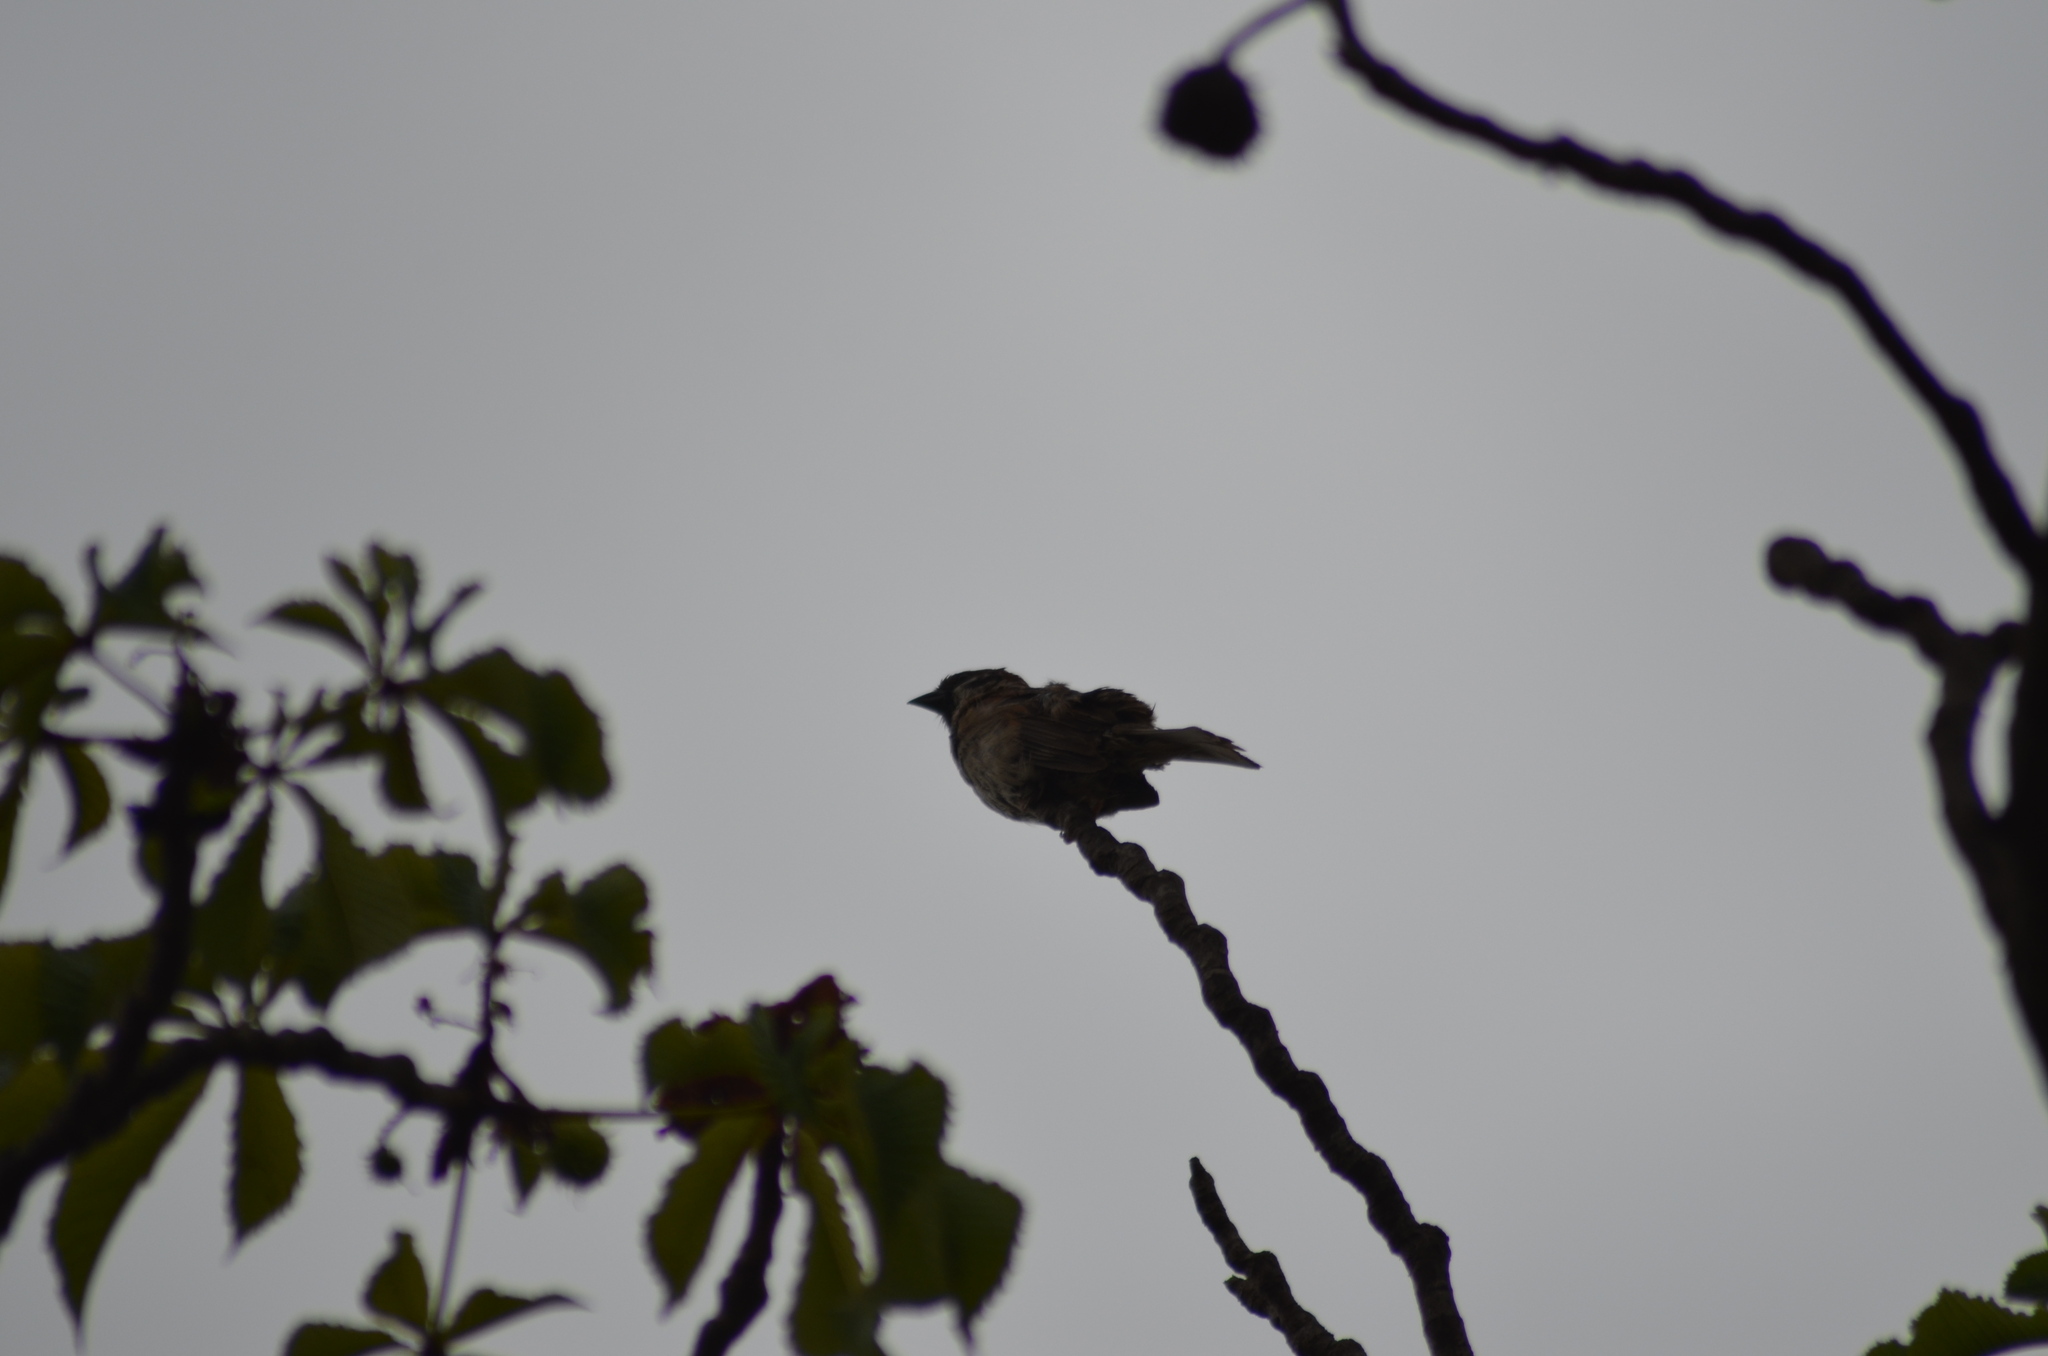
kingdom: Animalia
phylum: Chordata
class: Aves
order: Passeriformes
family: Passeridae
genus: Passer
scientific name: Passer montanus
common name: Eurasian tree sparrow
